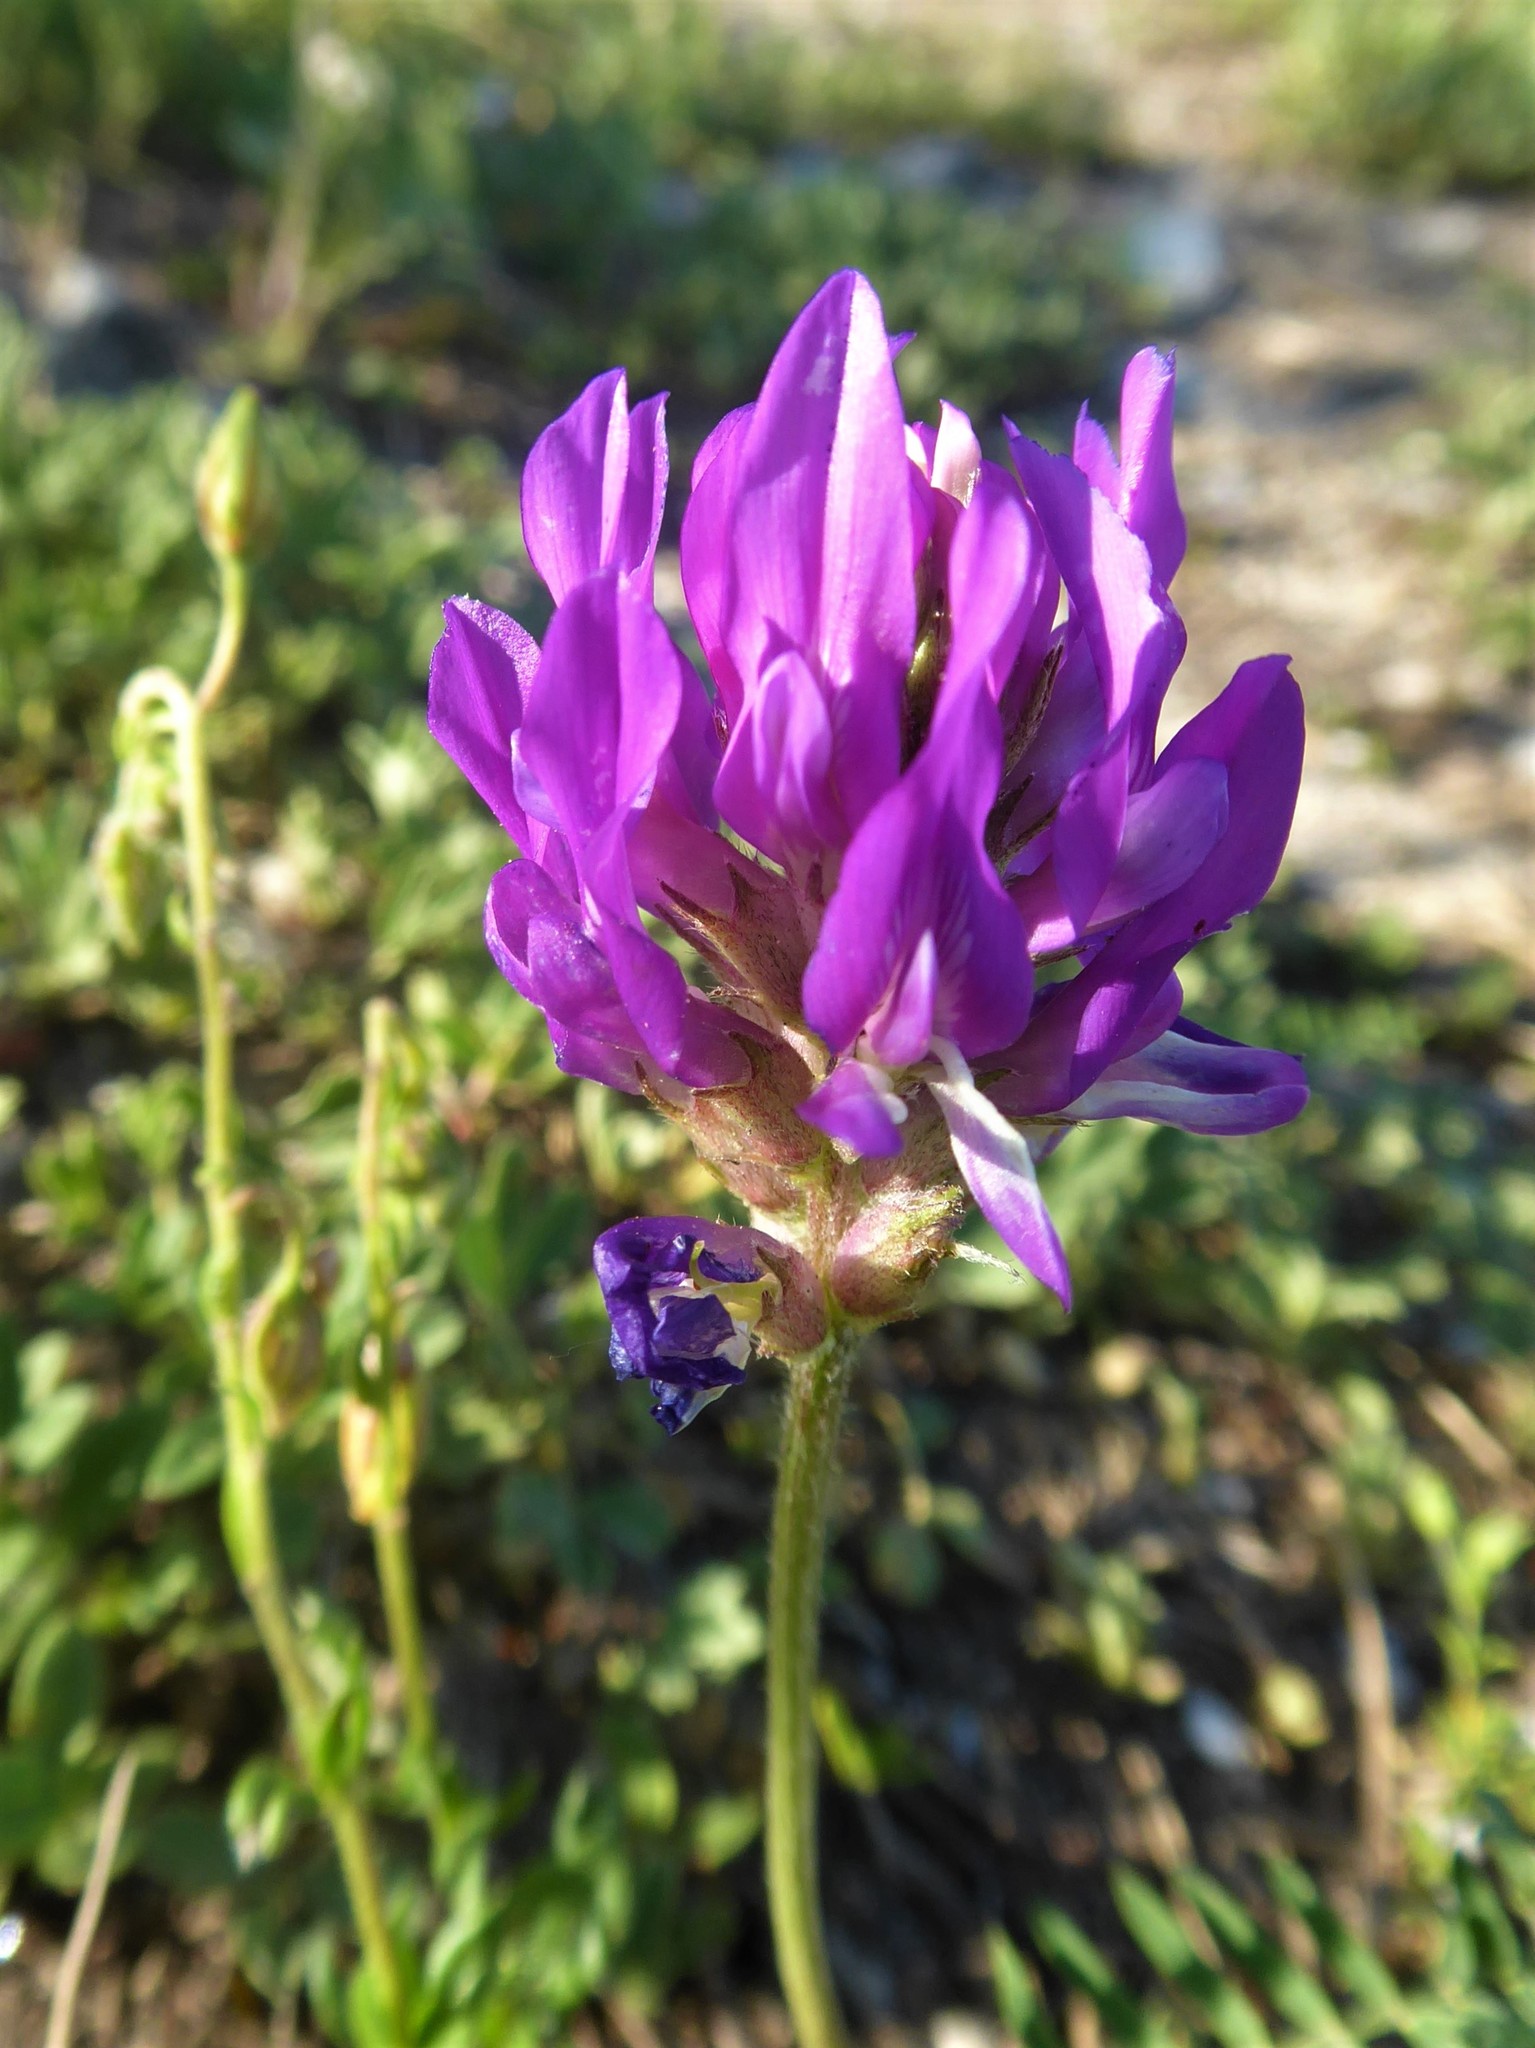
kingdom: Plantae
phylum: Tracheophyta
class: Magnoliopsida
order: Fabales
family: Fabaceae
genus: Astragalus
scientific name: Astragalus onobrychis
